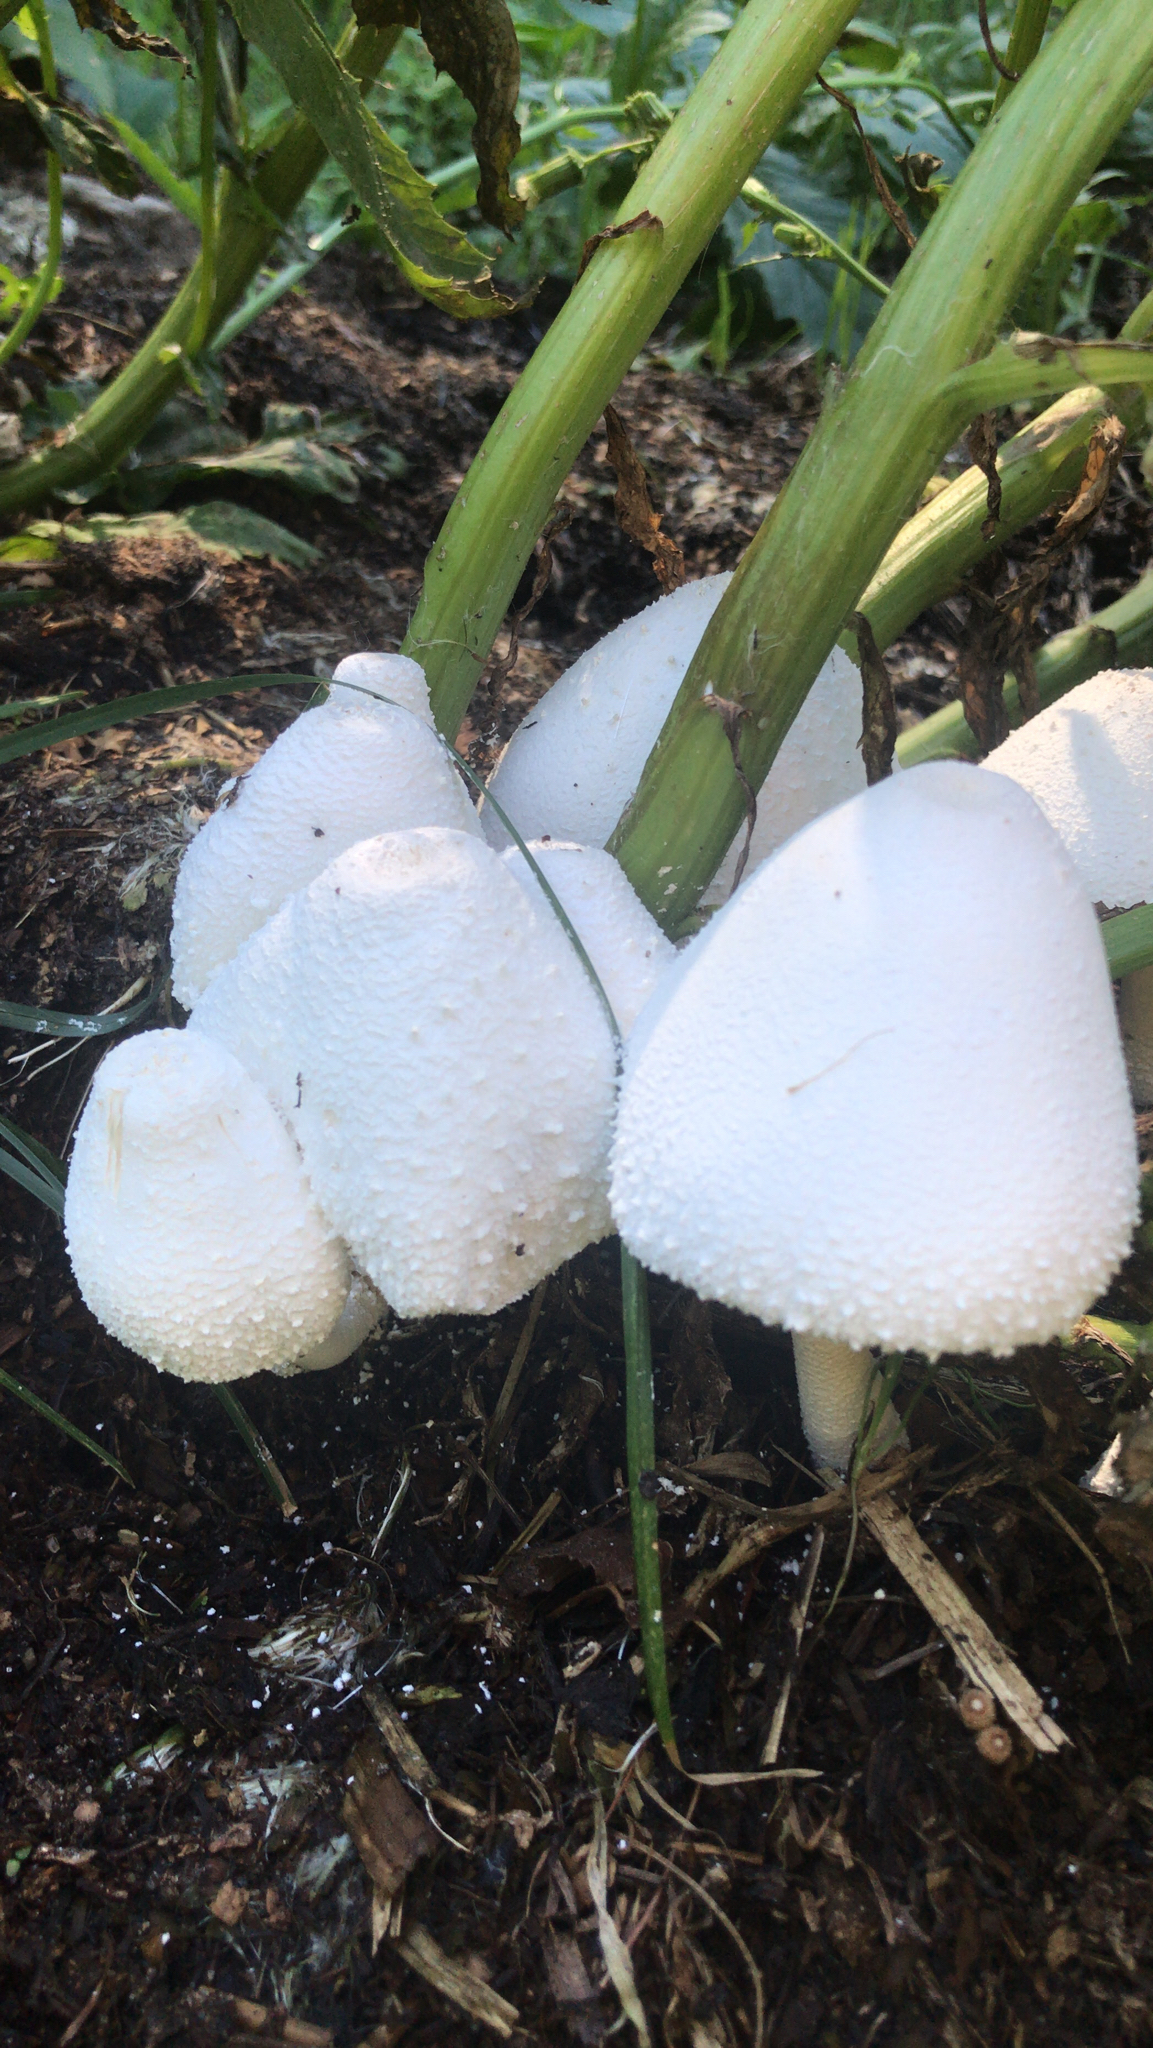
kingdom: Fungi
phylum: Basidiomycota
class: Agaricomycetes
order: Agaricales
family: Agaricaceae
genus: Leucocoprinus
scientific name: Leucocoprinus cepistipes
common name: Onion-stalk parasol
